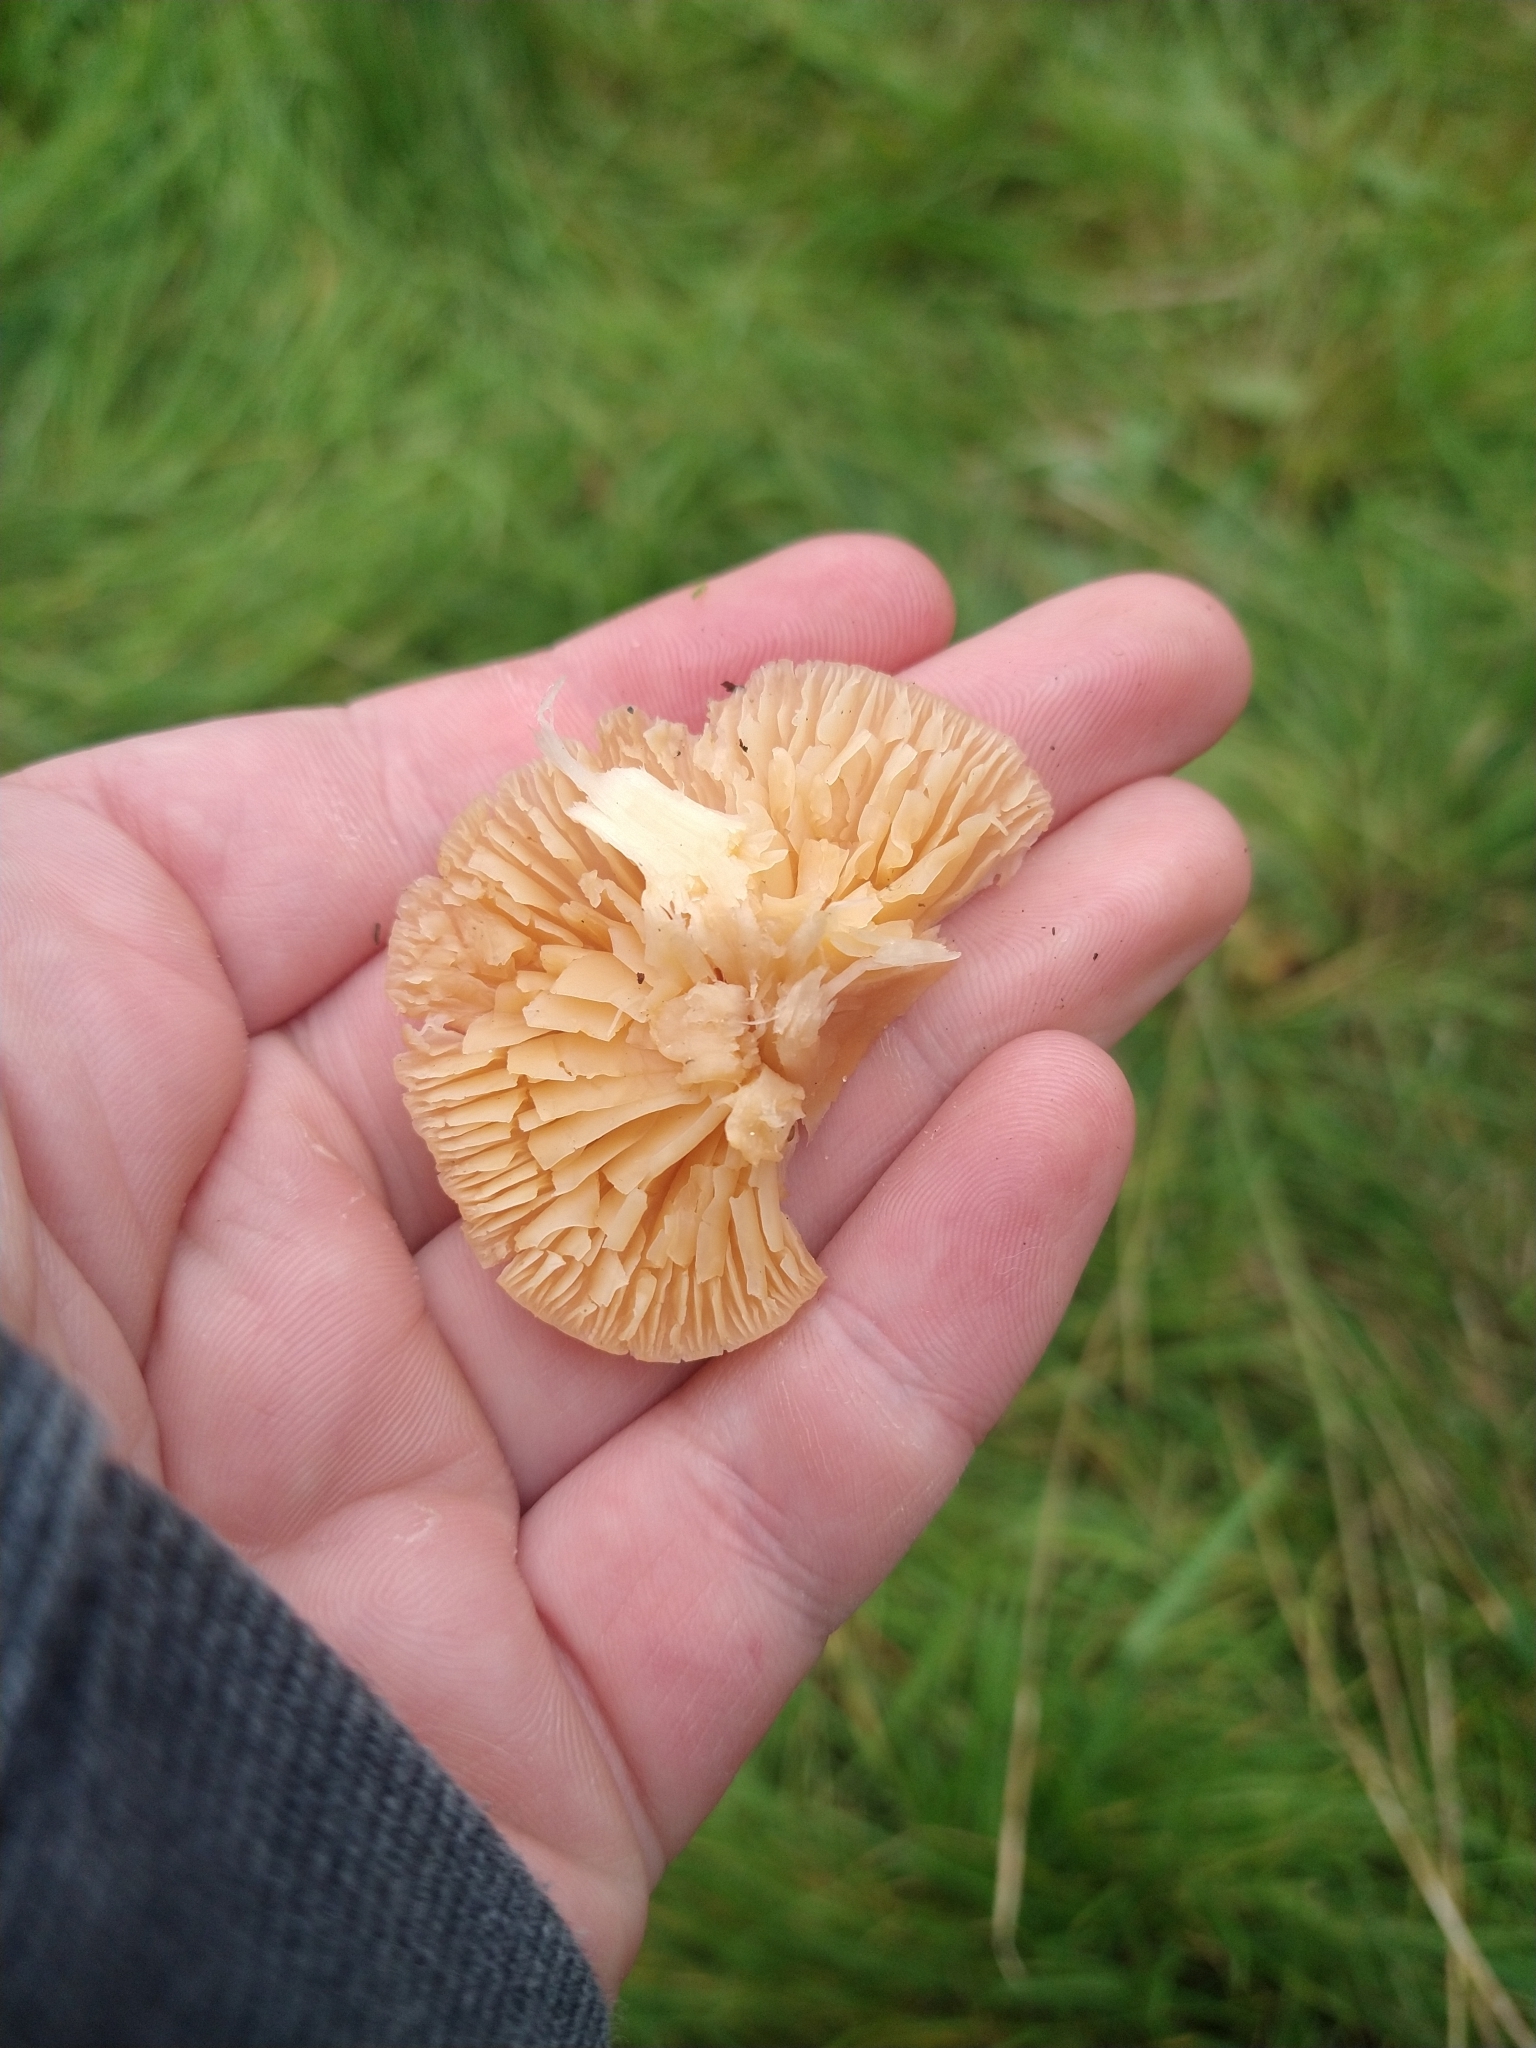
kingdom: Fungi
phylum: Basidiomycota
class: Agaricomycetes
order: Agaricales
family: Hygrophoraceae
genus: Cuphophyllus
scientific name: Cuphophyllus pratensis
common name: Meadow waxcap
